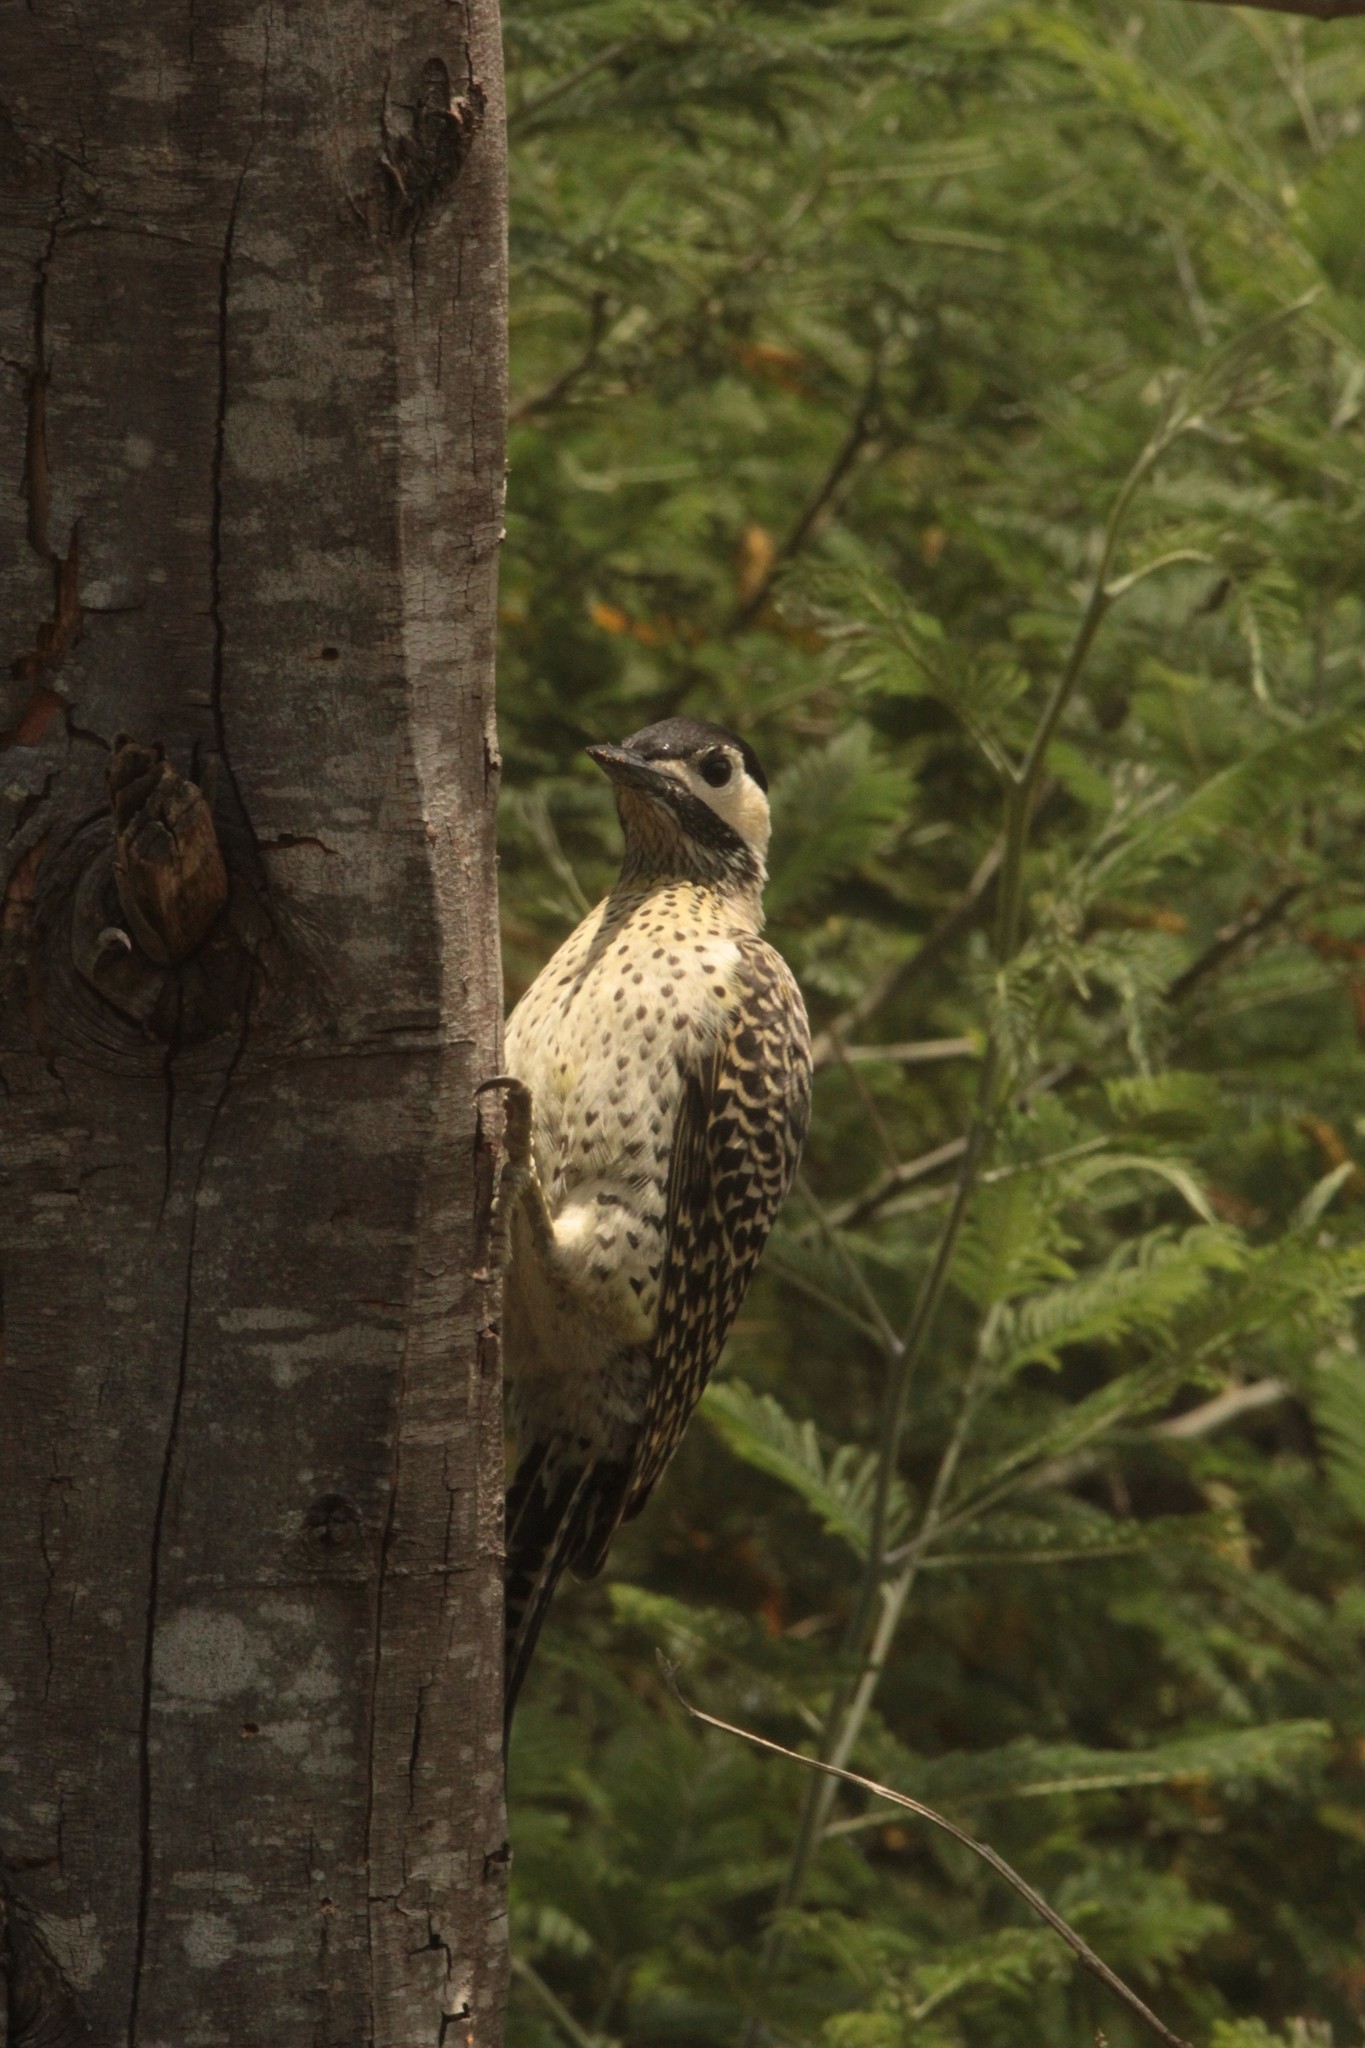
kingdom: Animalia
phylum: Chordata
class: Aves
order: Piciformes
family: Picidae
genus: Colaptes
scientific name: Colaptes melanochloros
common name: Green-barred woodpecker
